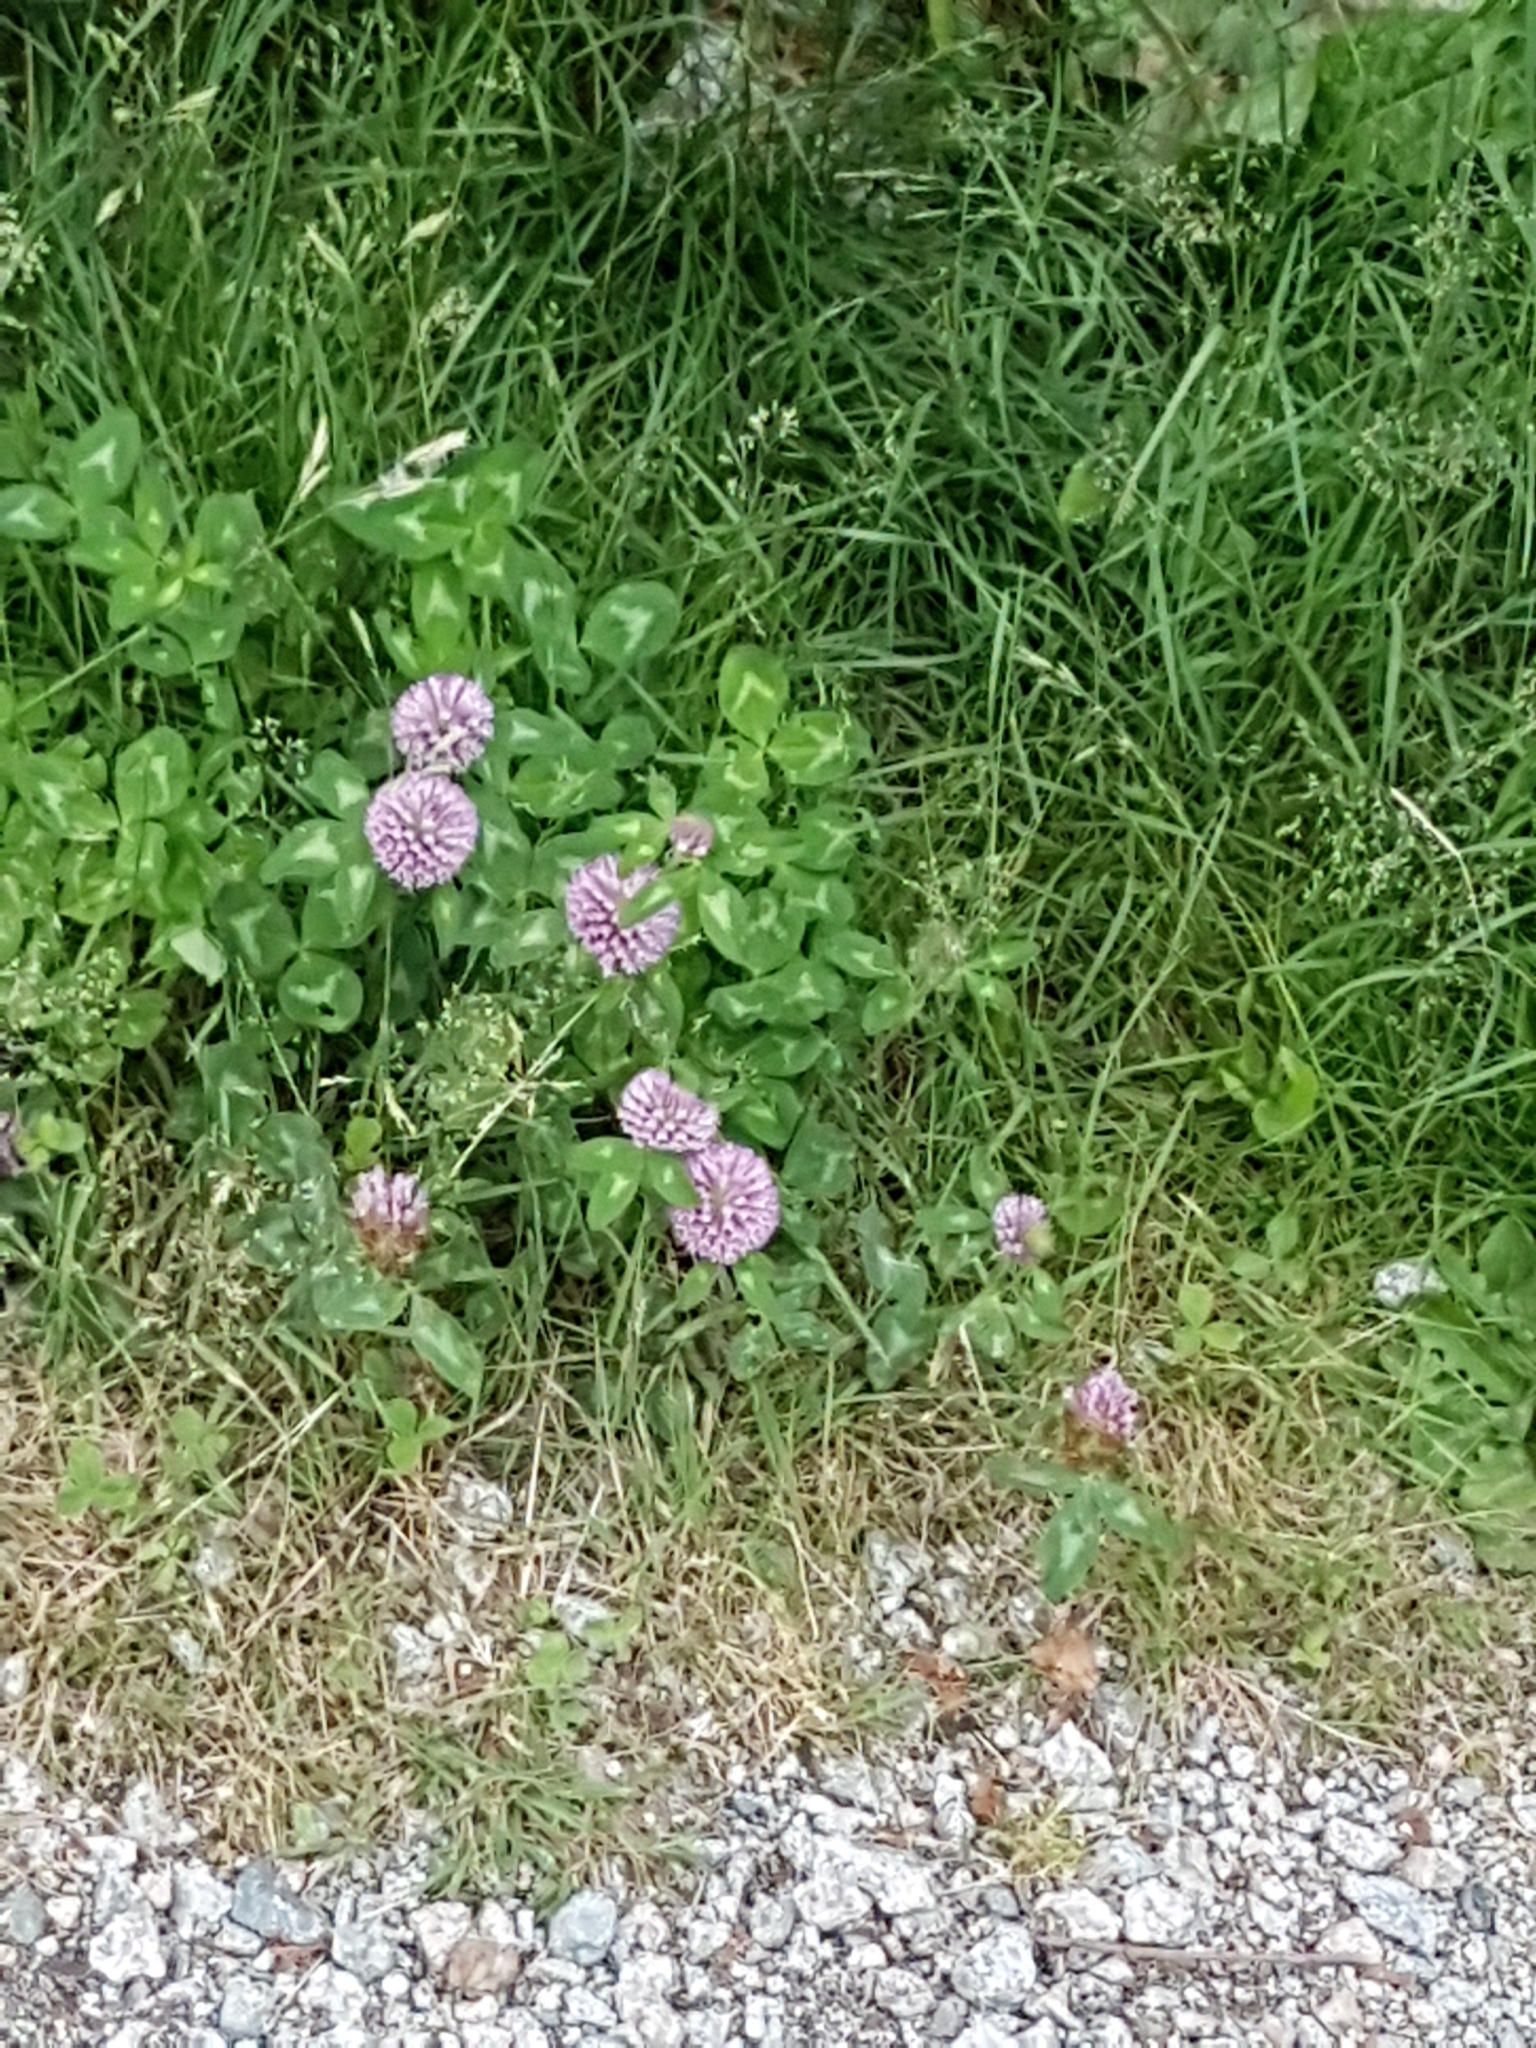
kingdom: Plantae
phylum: Tracheophyta
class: Magnoliopsida
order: Fabales
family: Fabaceae
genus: Trifolium
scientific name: Trifolium pratense
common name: Red clover
